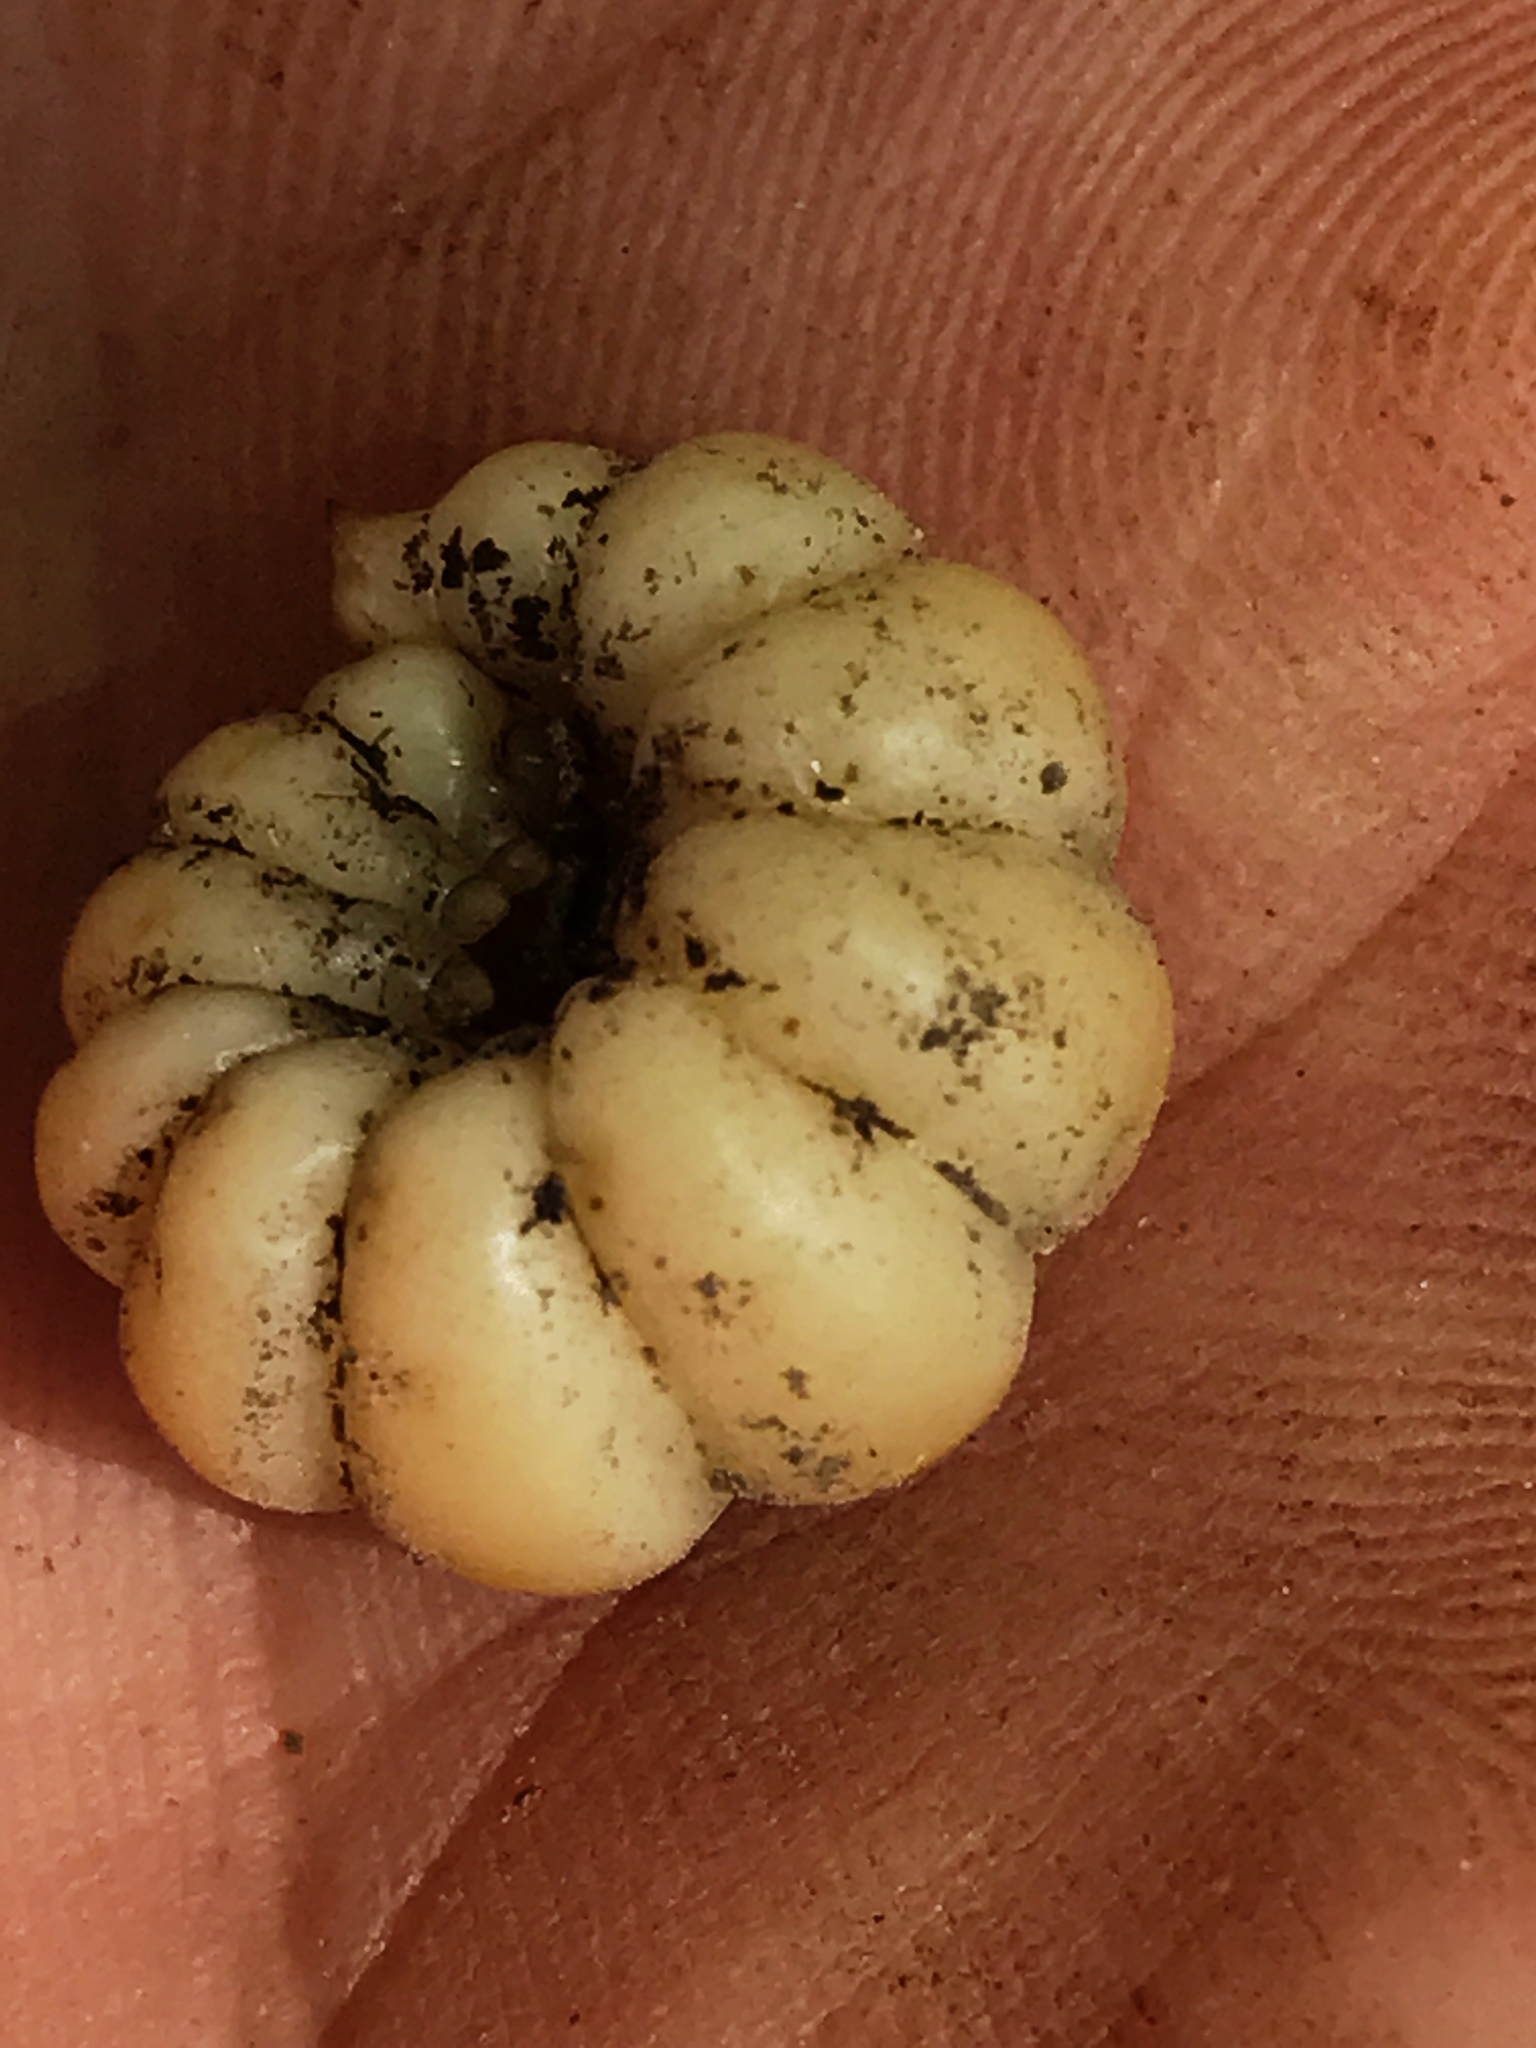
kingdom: Animalia
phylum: Arthropoda
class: Insecta
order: Hymenoptera
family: Crabronidae
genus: Sphecius
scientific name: Sphecius speciosus
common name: Cicada killer
